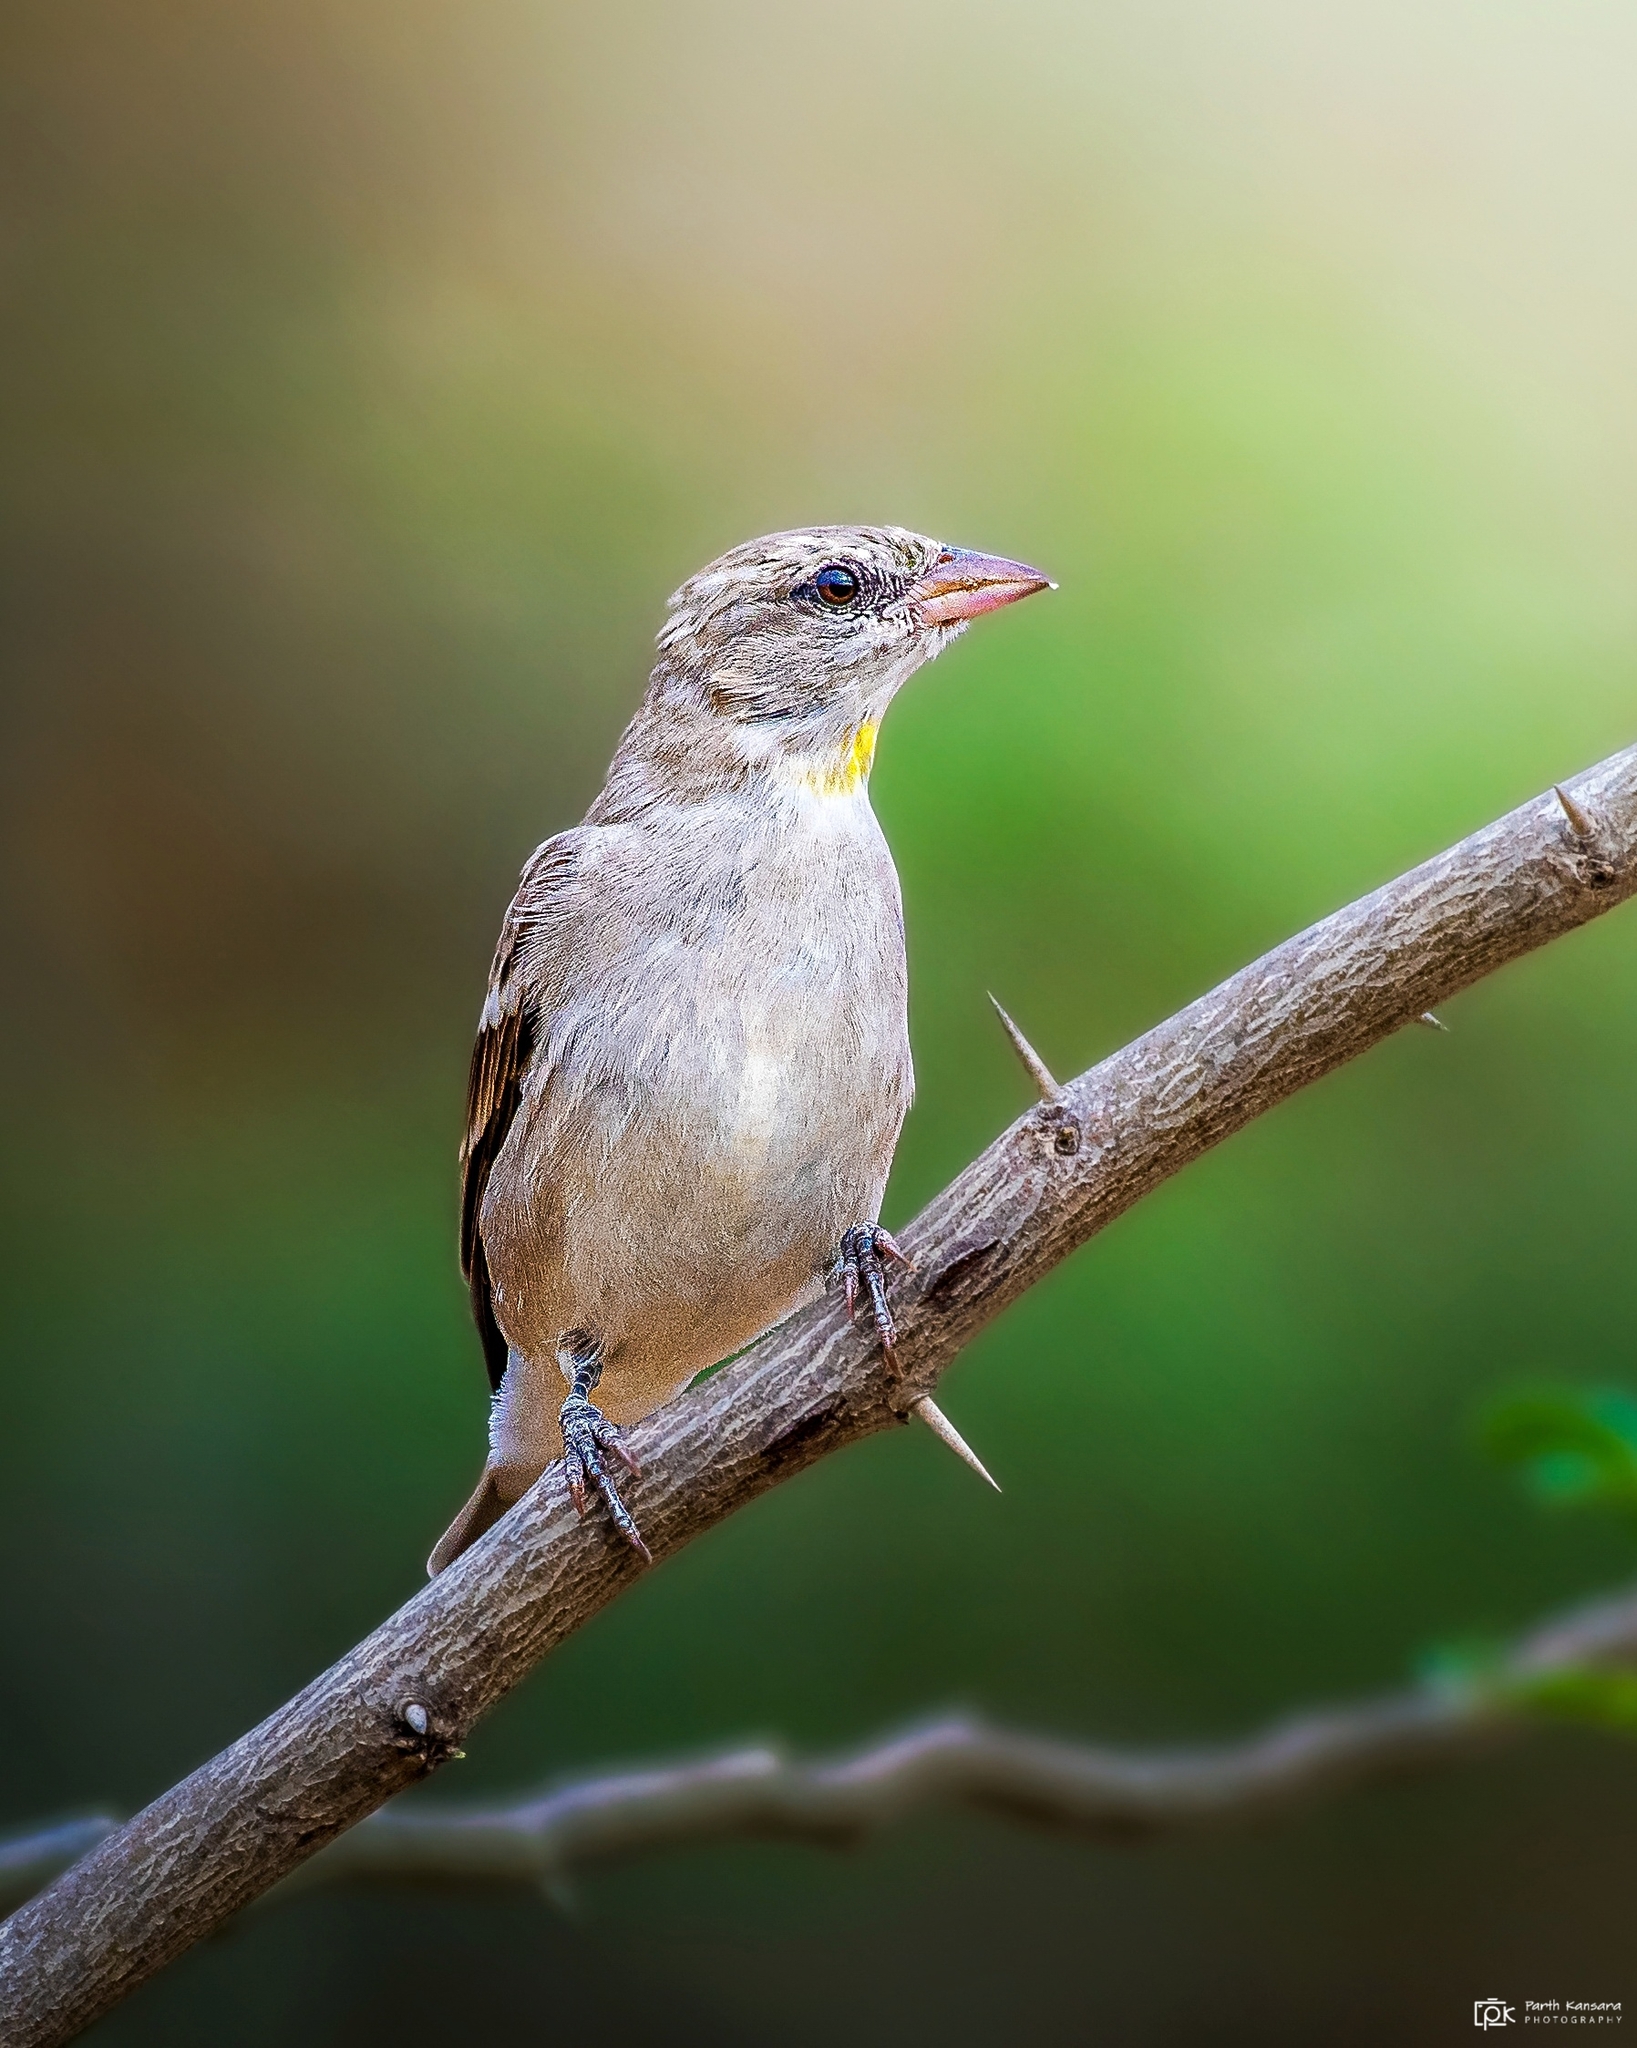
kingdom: Animalia
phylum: Chordata
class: Aves
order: Passeriformes
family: Passeridae
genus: Gymnoris
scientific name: Gymnoris xanthocollis
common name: Yellow-throated sparrow
